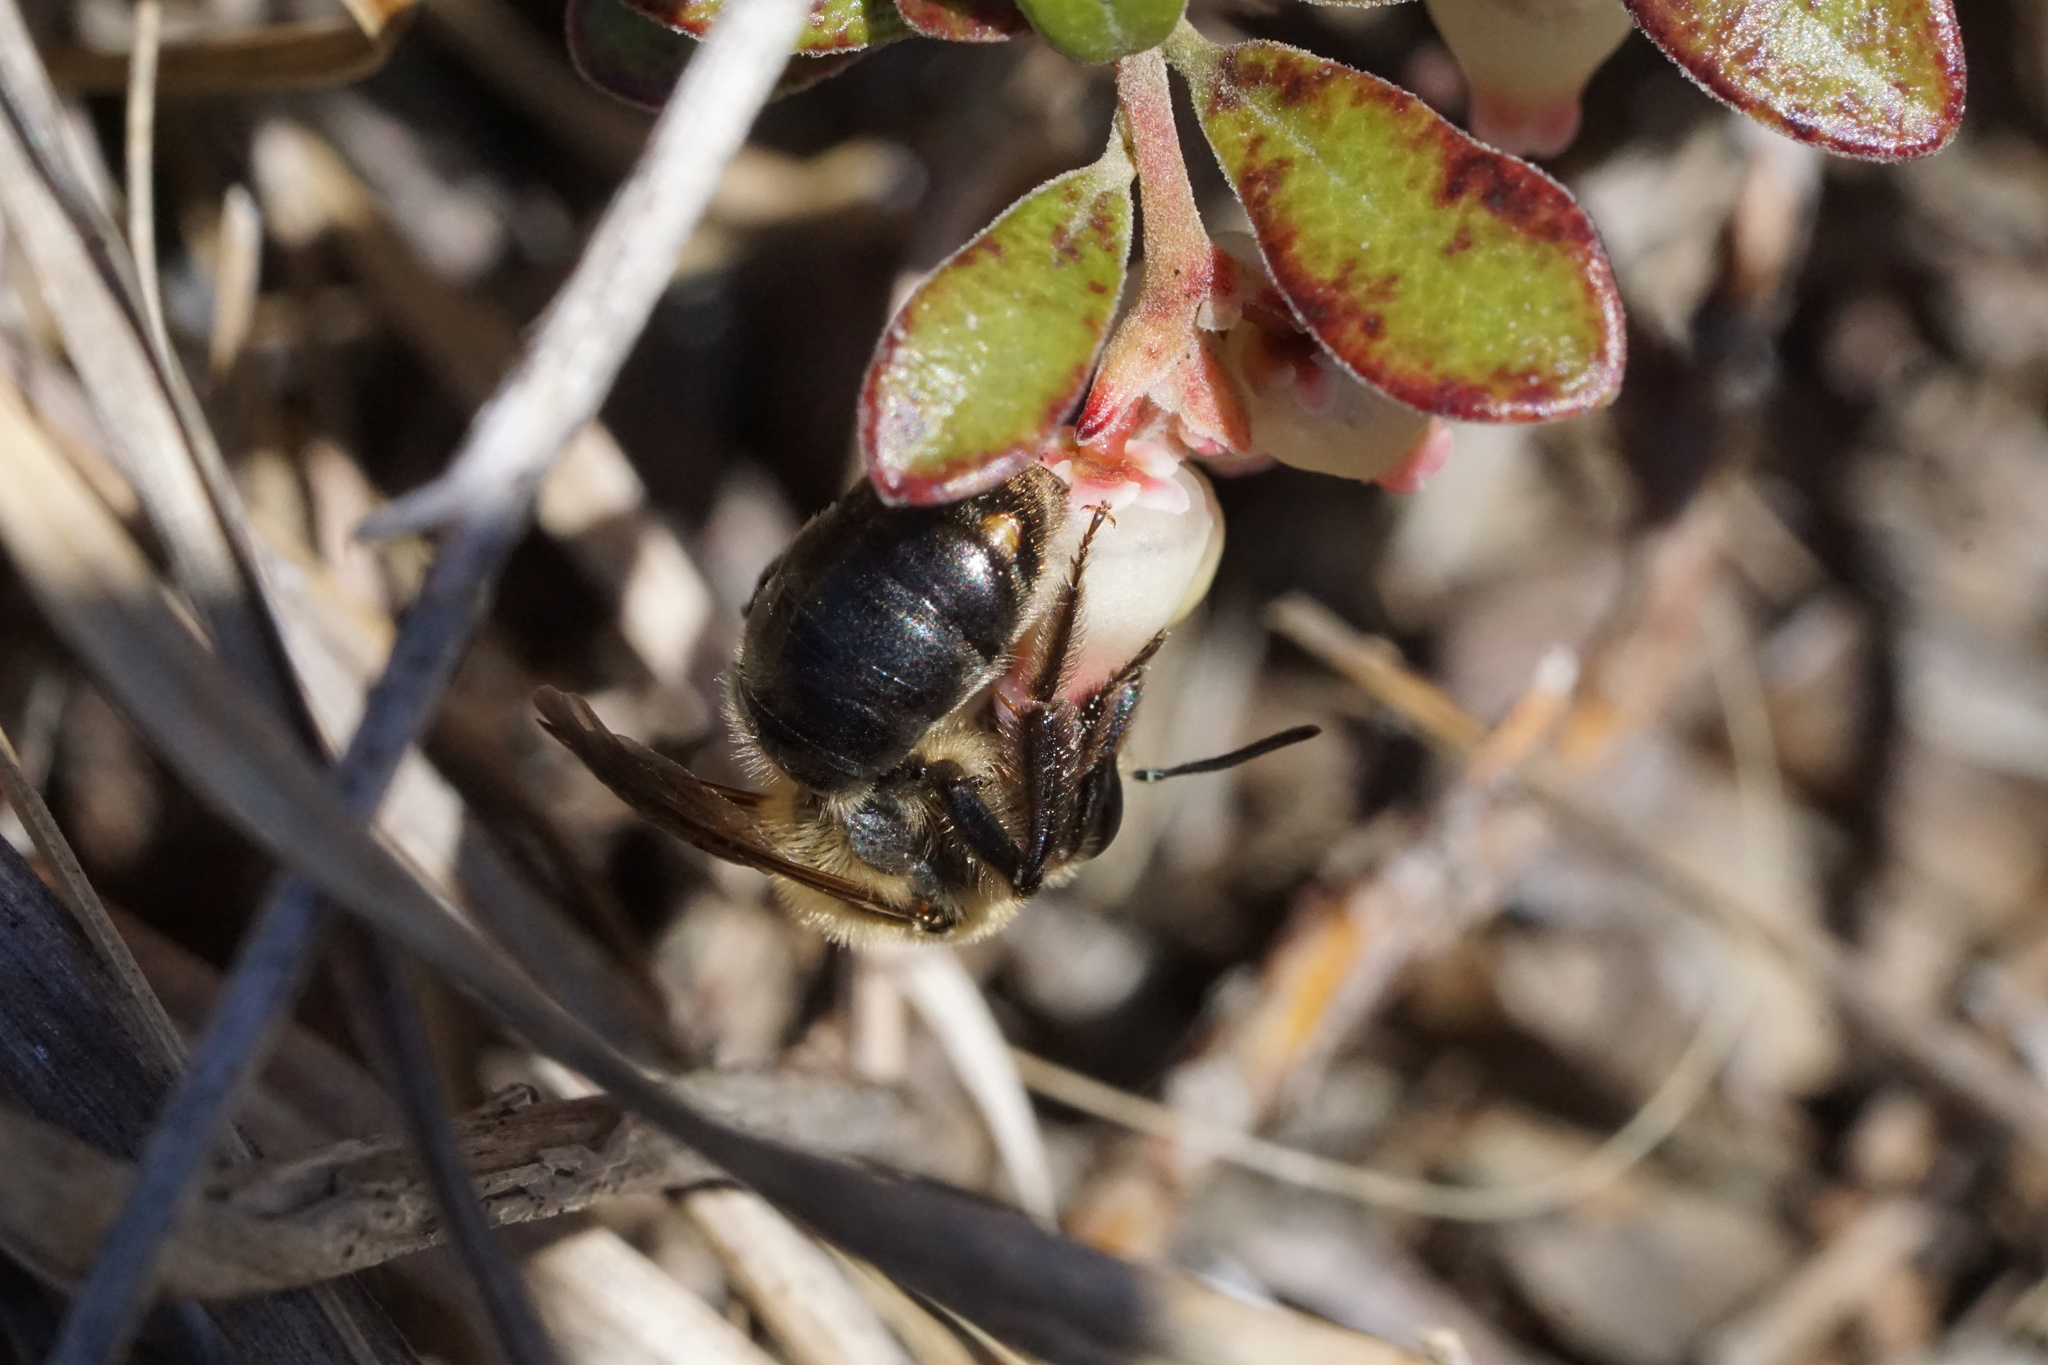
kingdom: Animalia
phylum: Arthropoda
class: Insecta
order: Hymenoptera
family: Andrenidae
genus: Andrena
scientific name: Andrena vicina
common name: Neighborly mining bee
